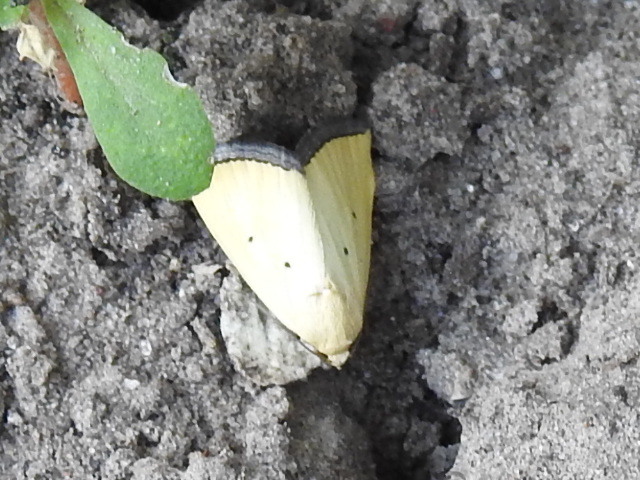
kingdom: Animalia
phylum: Arthropoda
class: Insecta
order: Lepidoptera
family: Noctuidae
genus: Marimatha
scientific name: Marimatha nigrofimbria
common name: Black-bordered lemon moth
